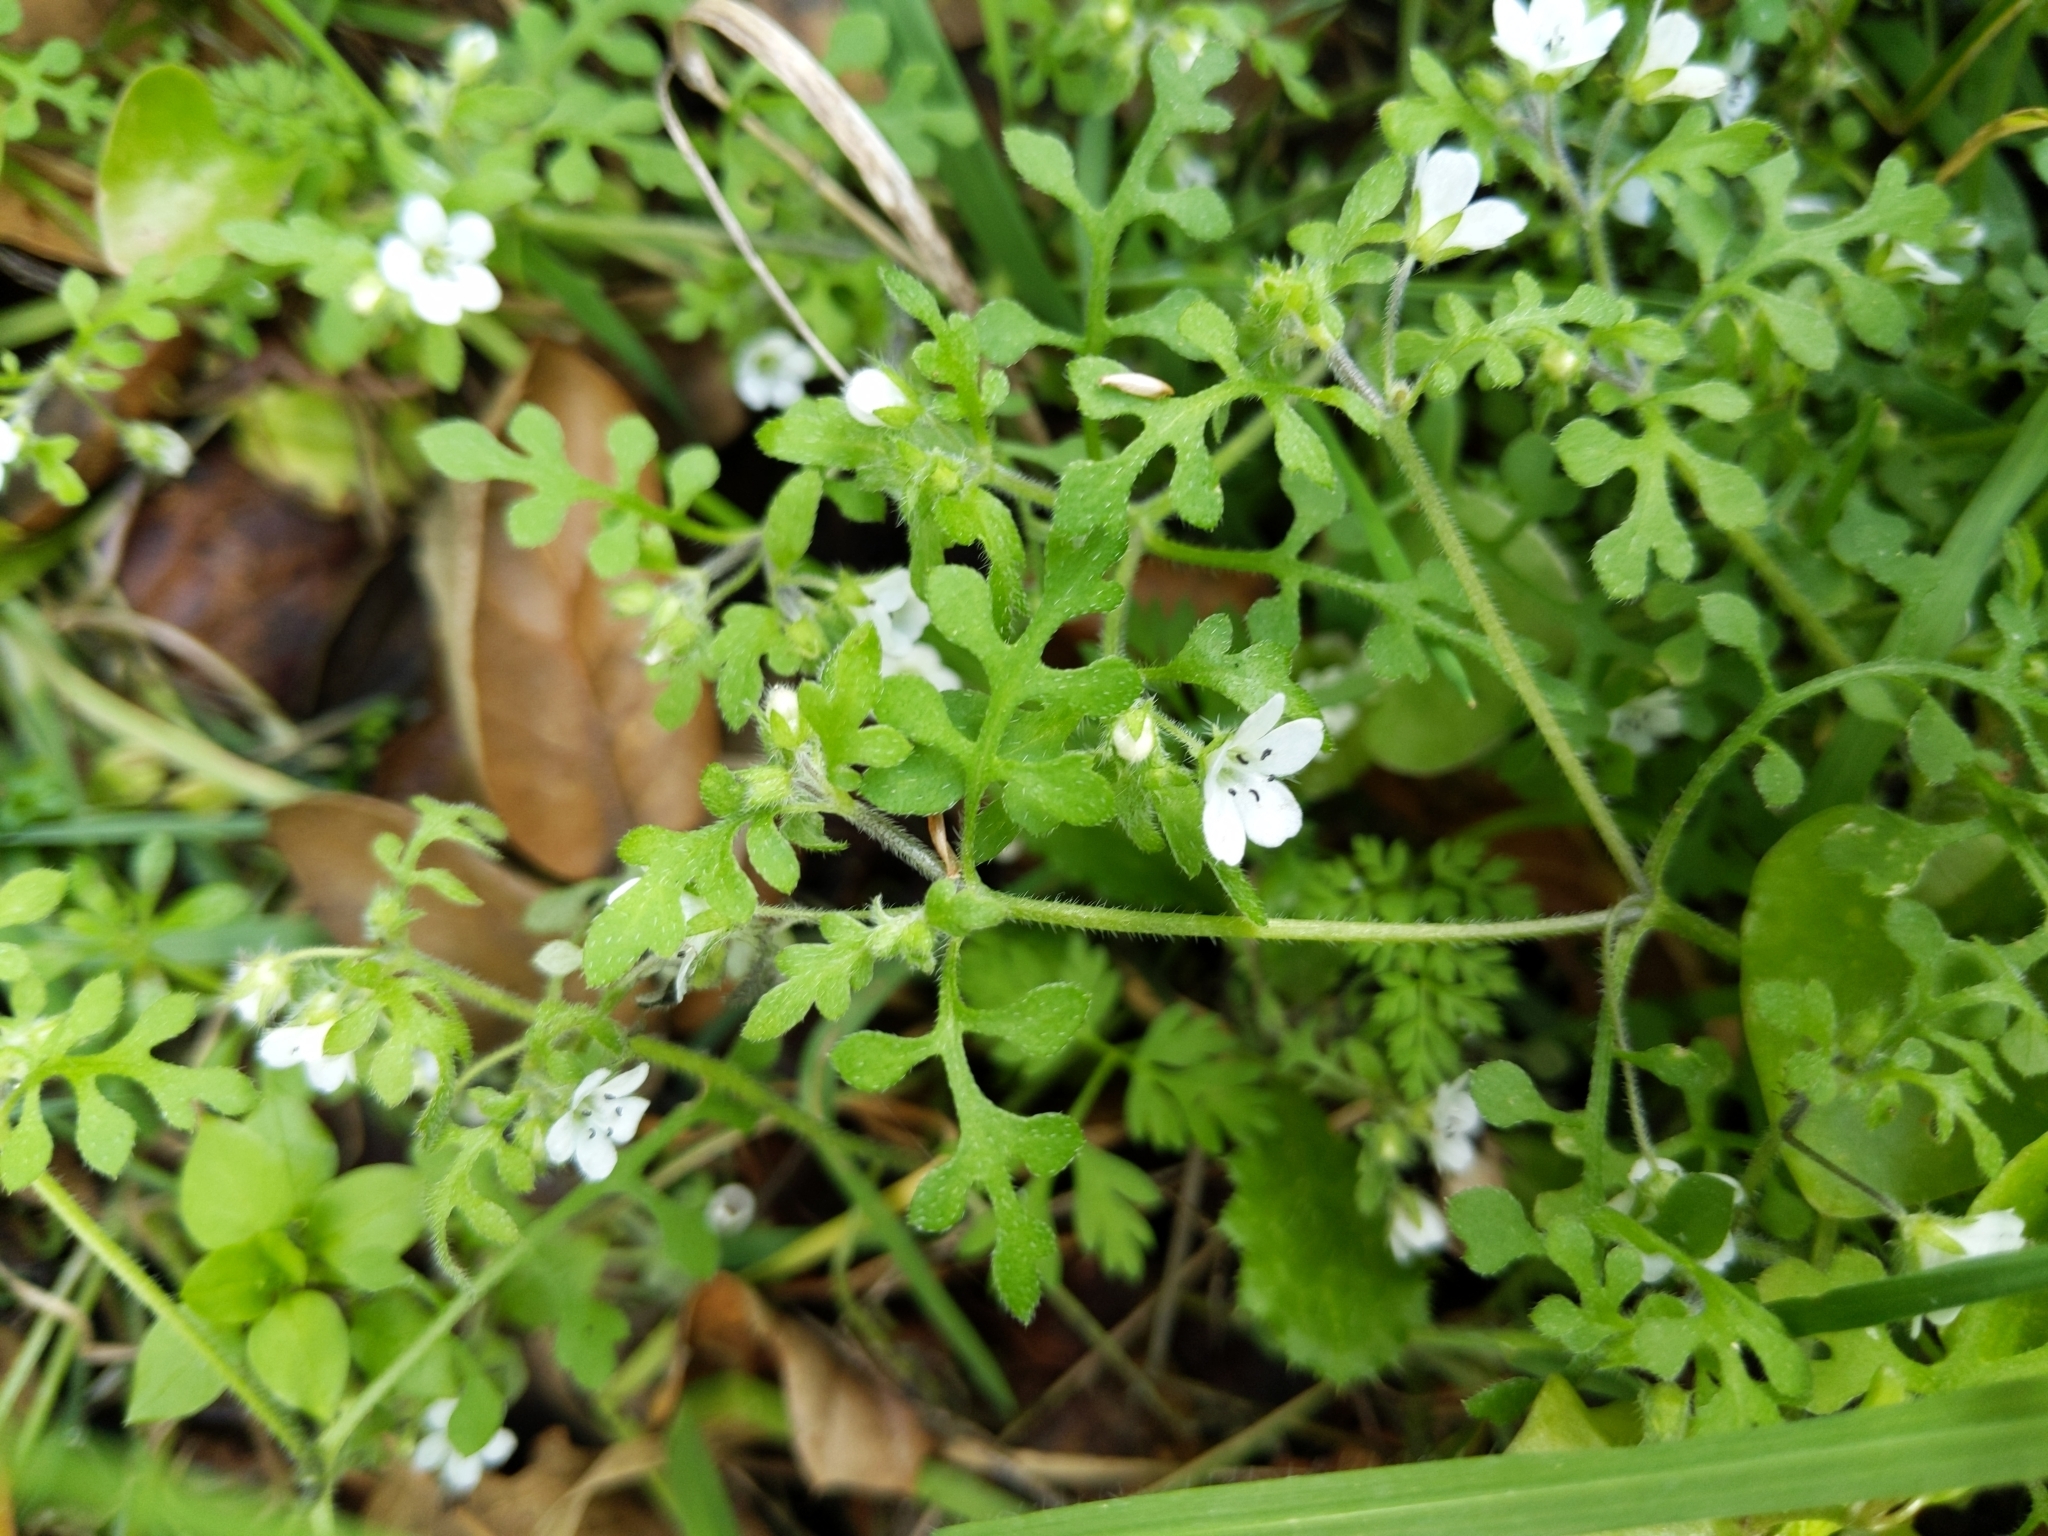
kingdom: Plantae
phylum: Tracheophyta
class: Magnoliopsida
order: Boraginales
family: Hydrophyllaceae
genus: Nemophila
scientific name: Nemophila heterophylla
